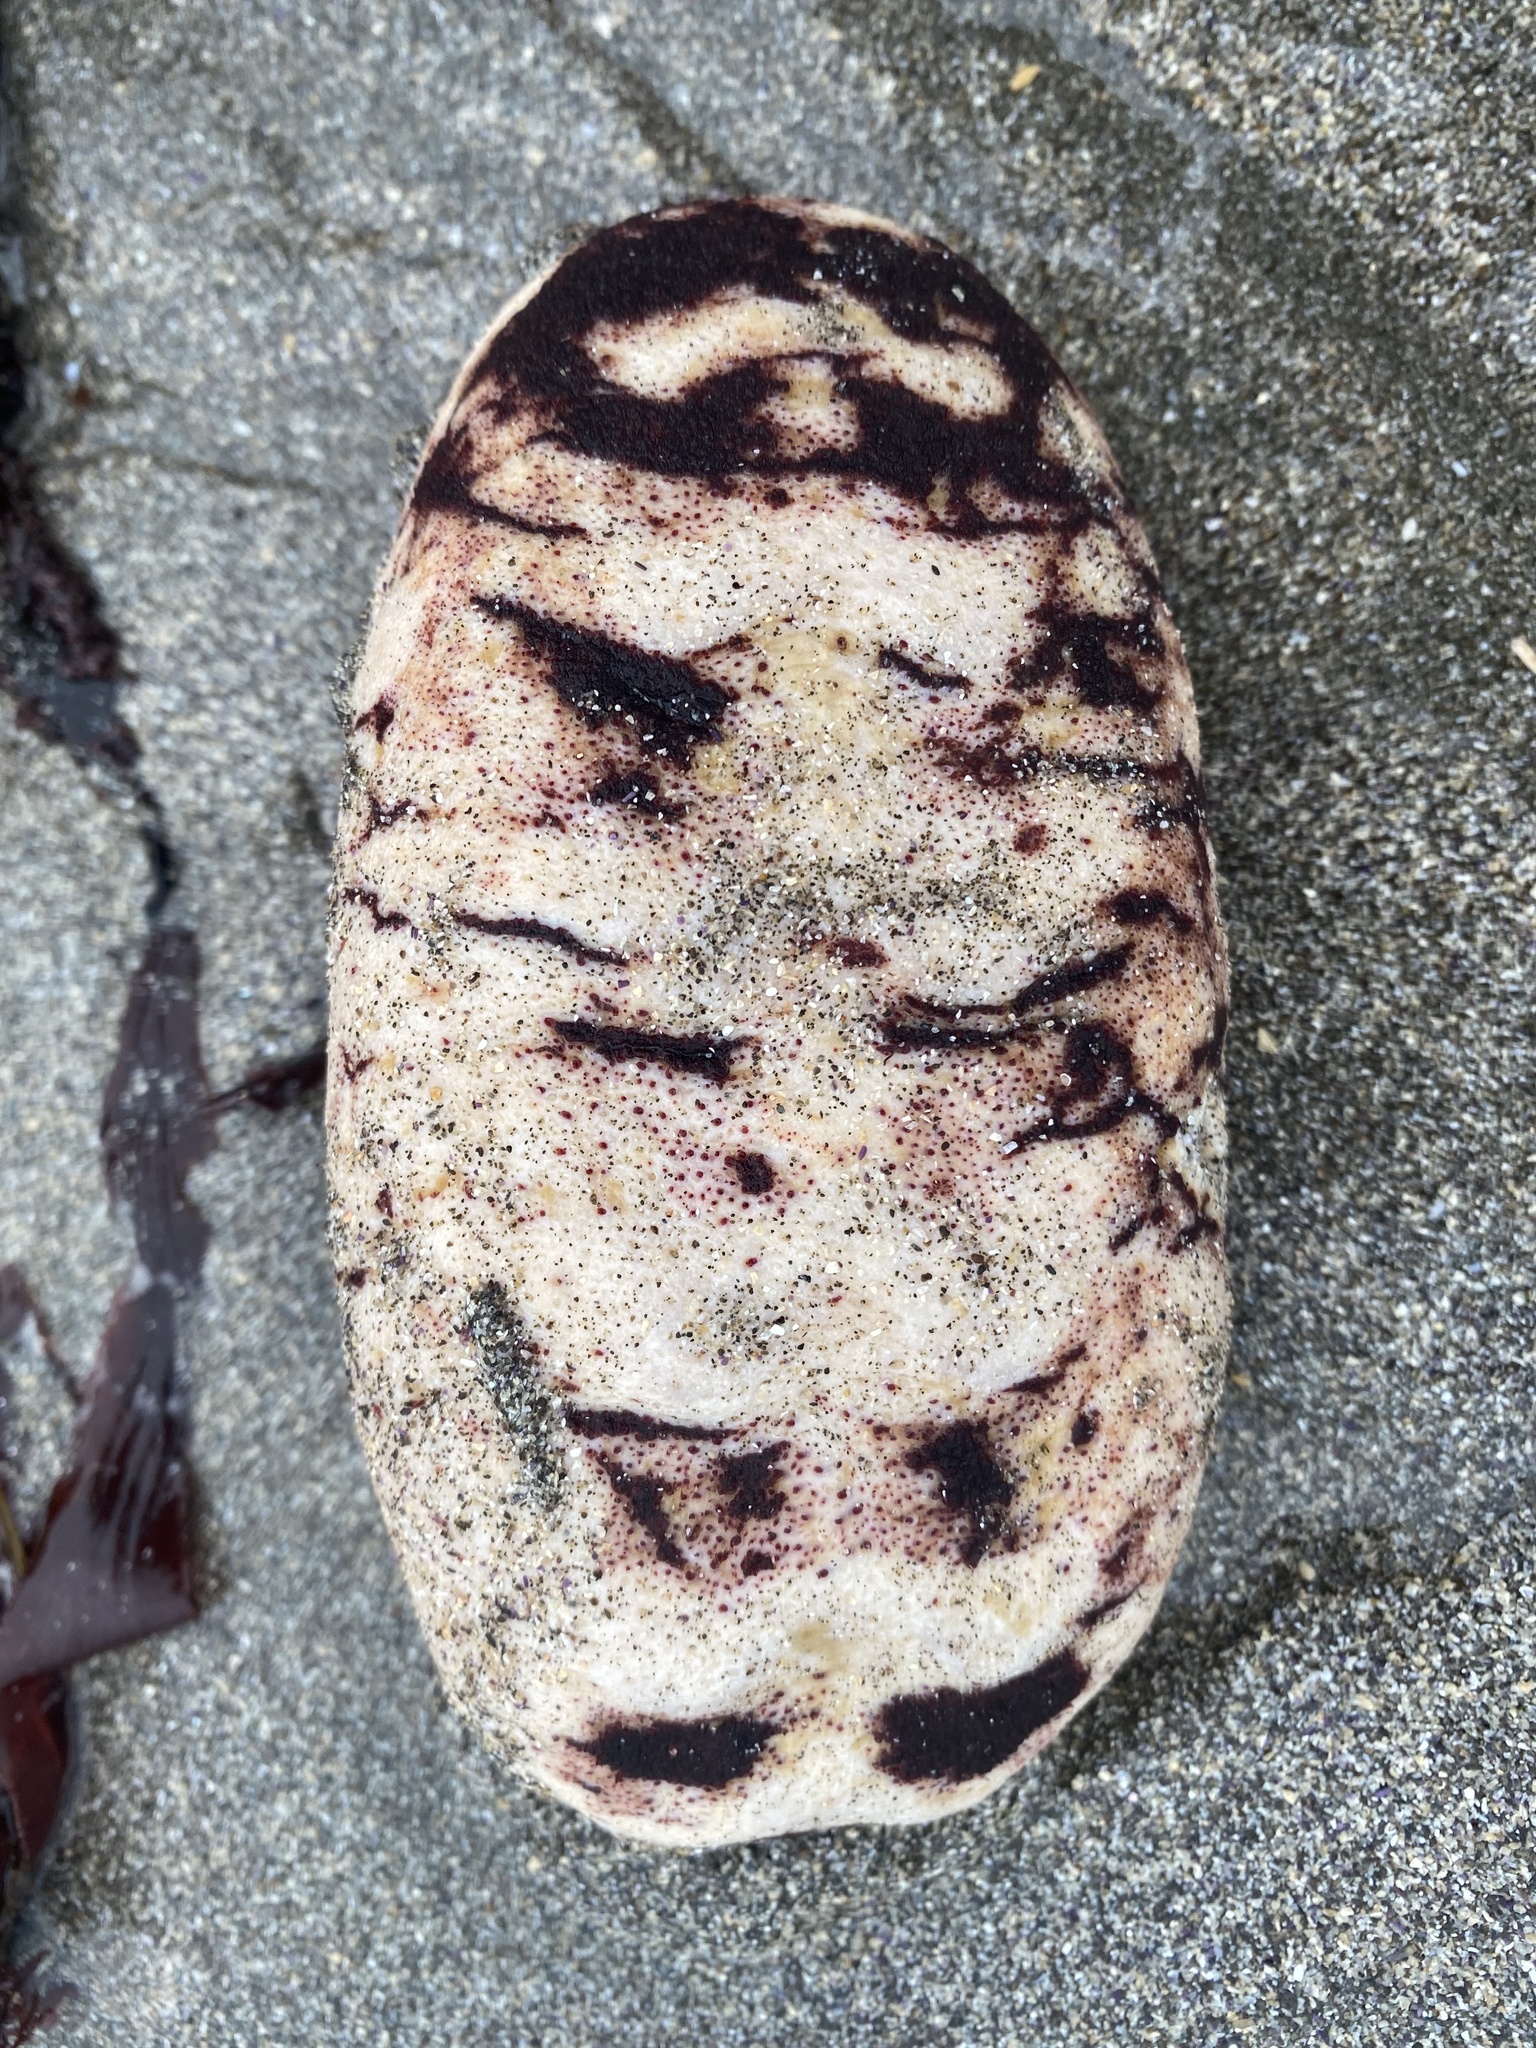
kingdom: Animalia
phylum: Mollusca
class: Polyplacophora
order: Chitonida
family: Acanthochitonidae
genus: Cryptochiton
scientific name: Cryptochiton stelleri
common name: Giant pacific chiton
